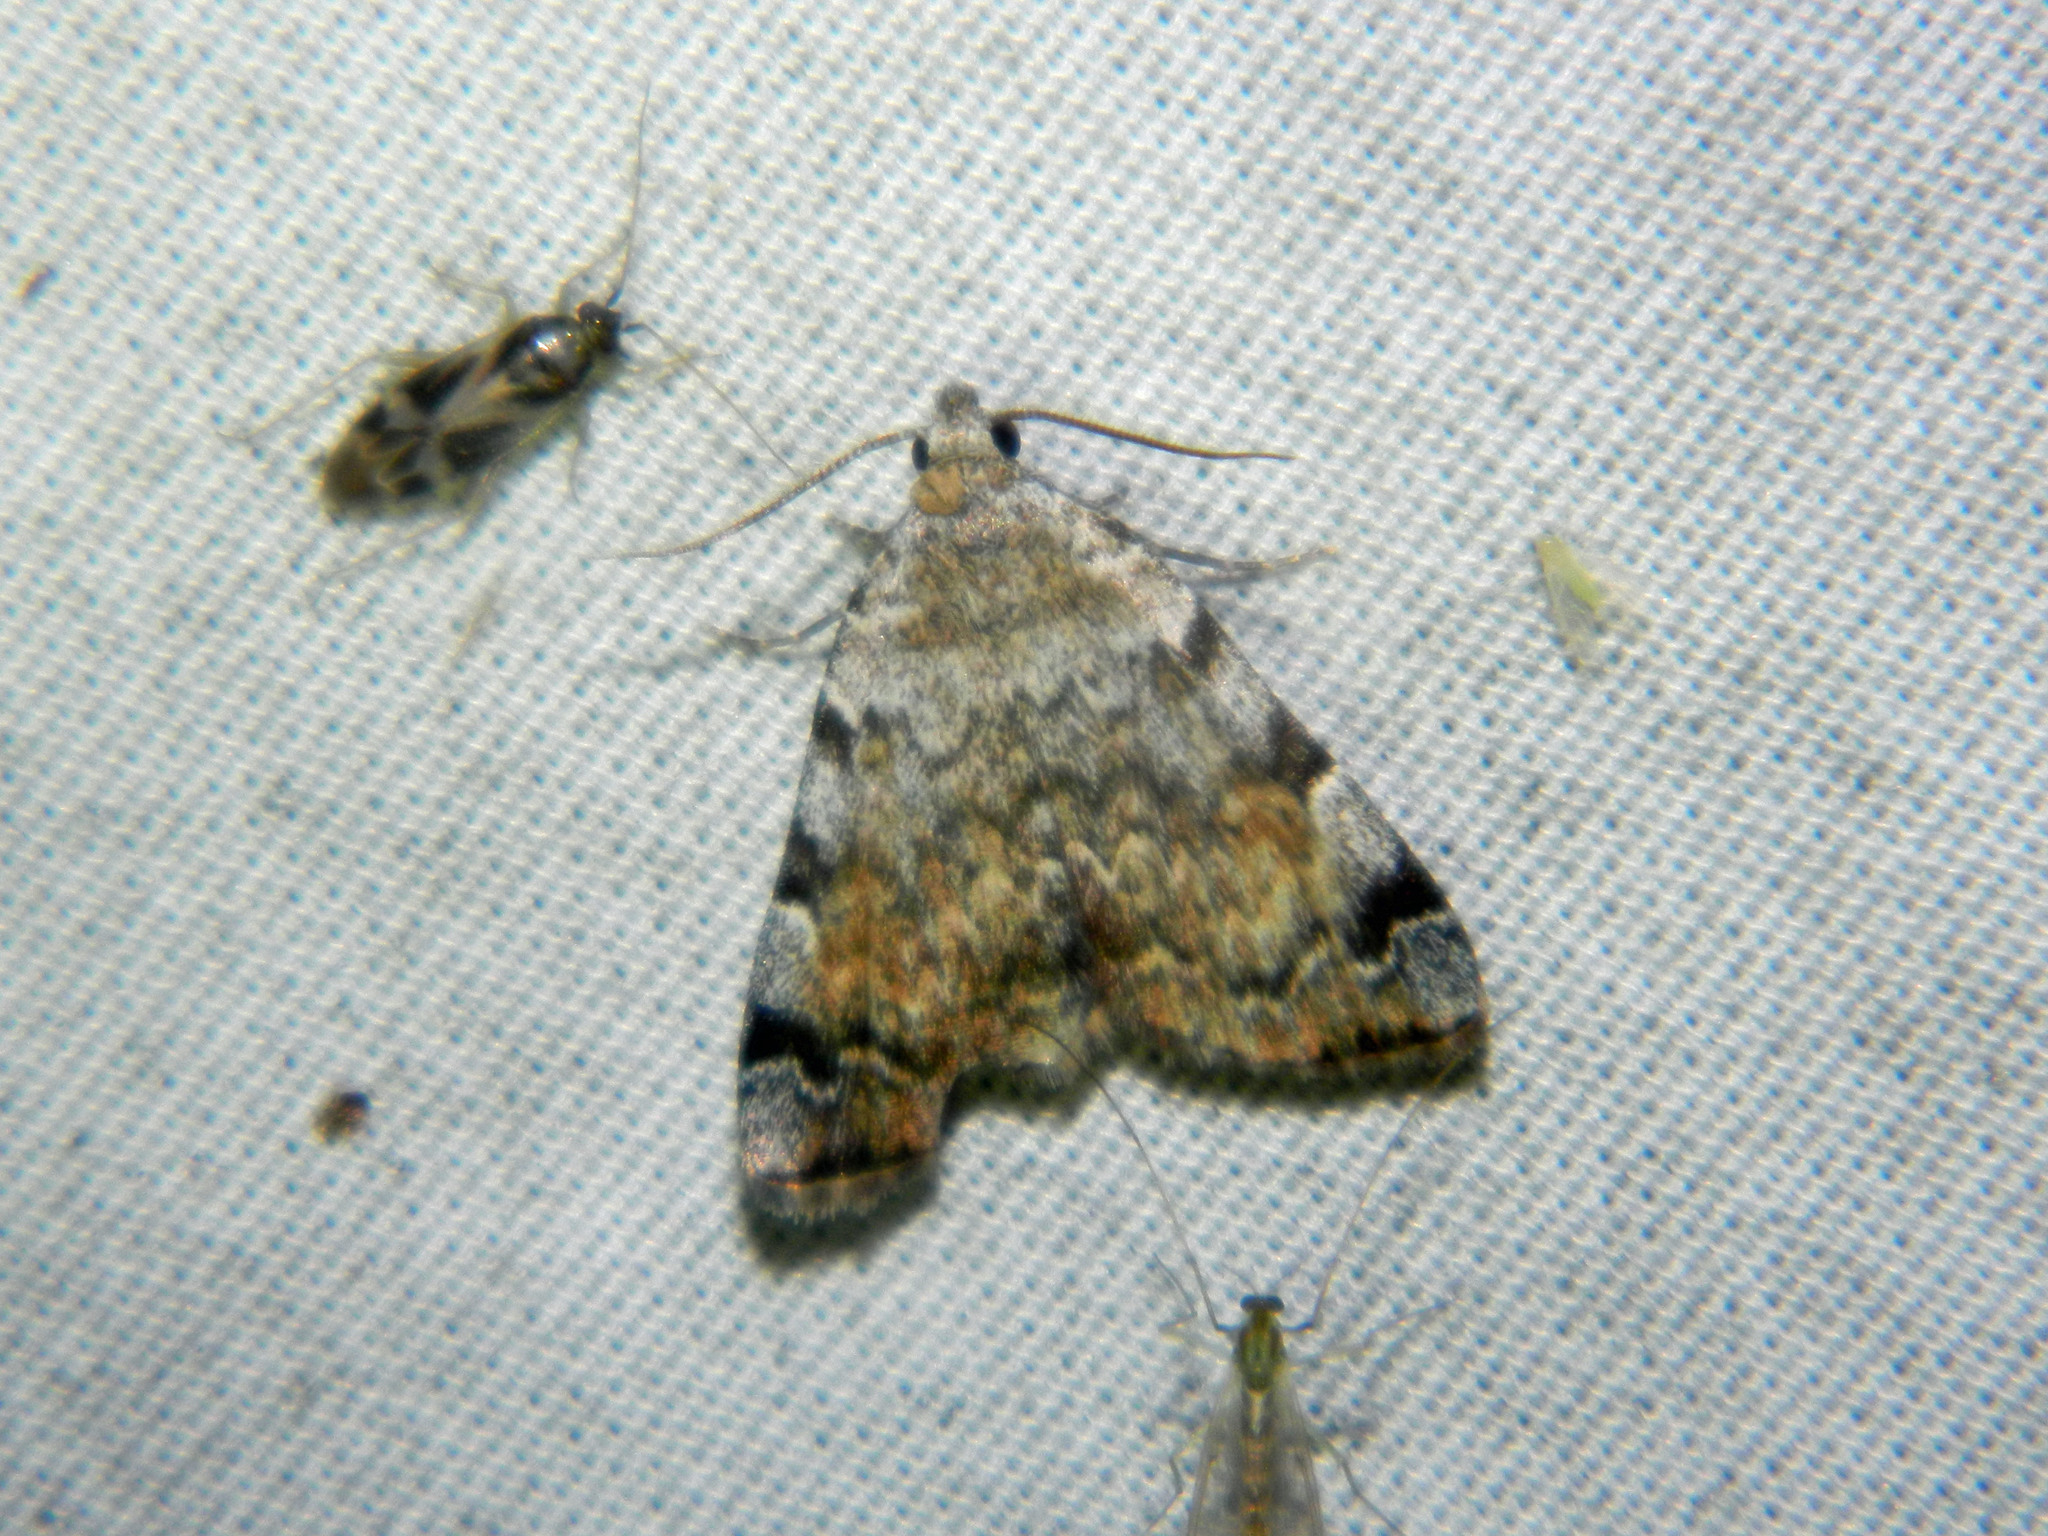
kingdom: Animalia
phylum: Arthropoda
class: Insecta
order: Lepidoptera
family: Erebidae
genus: Idia
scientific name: Idia americalis
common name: American idia moth
